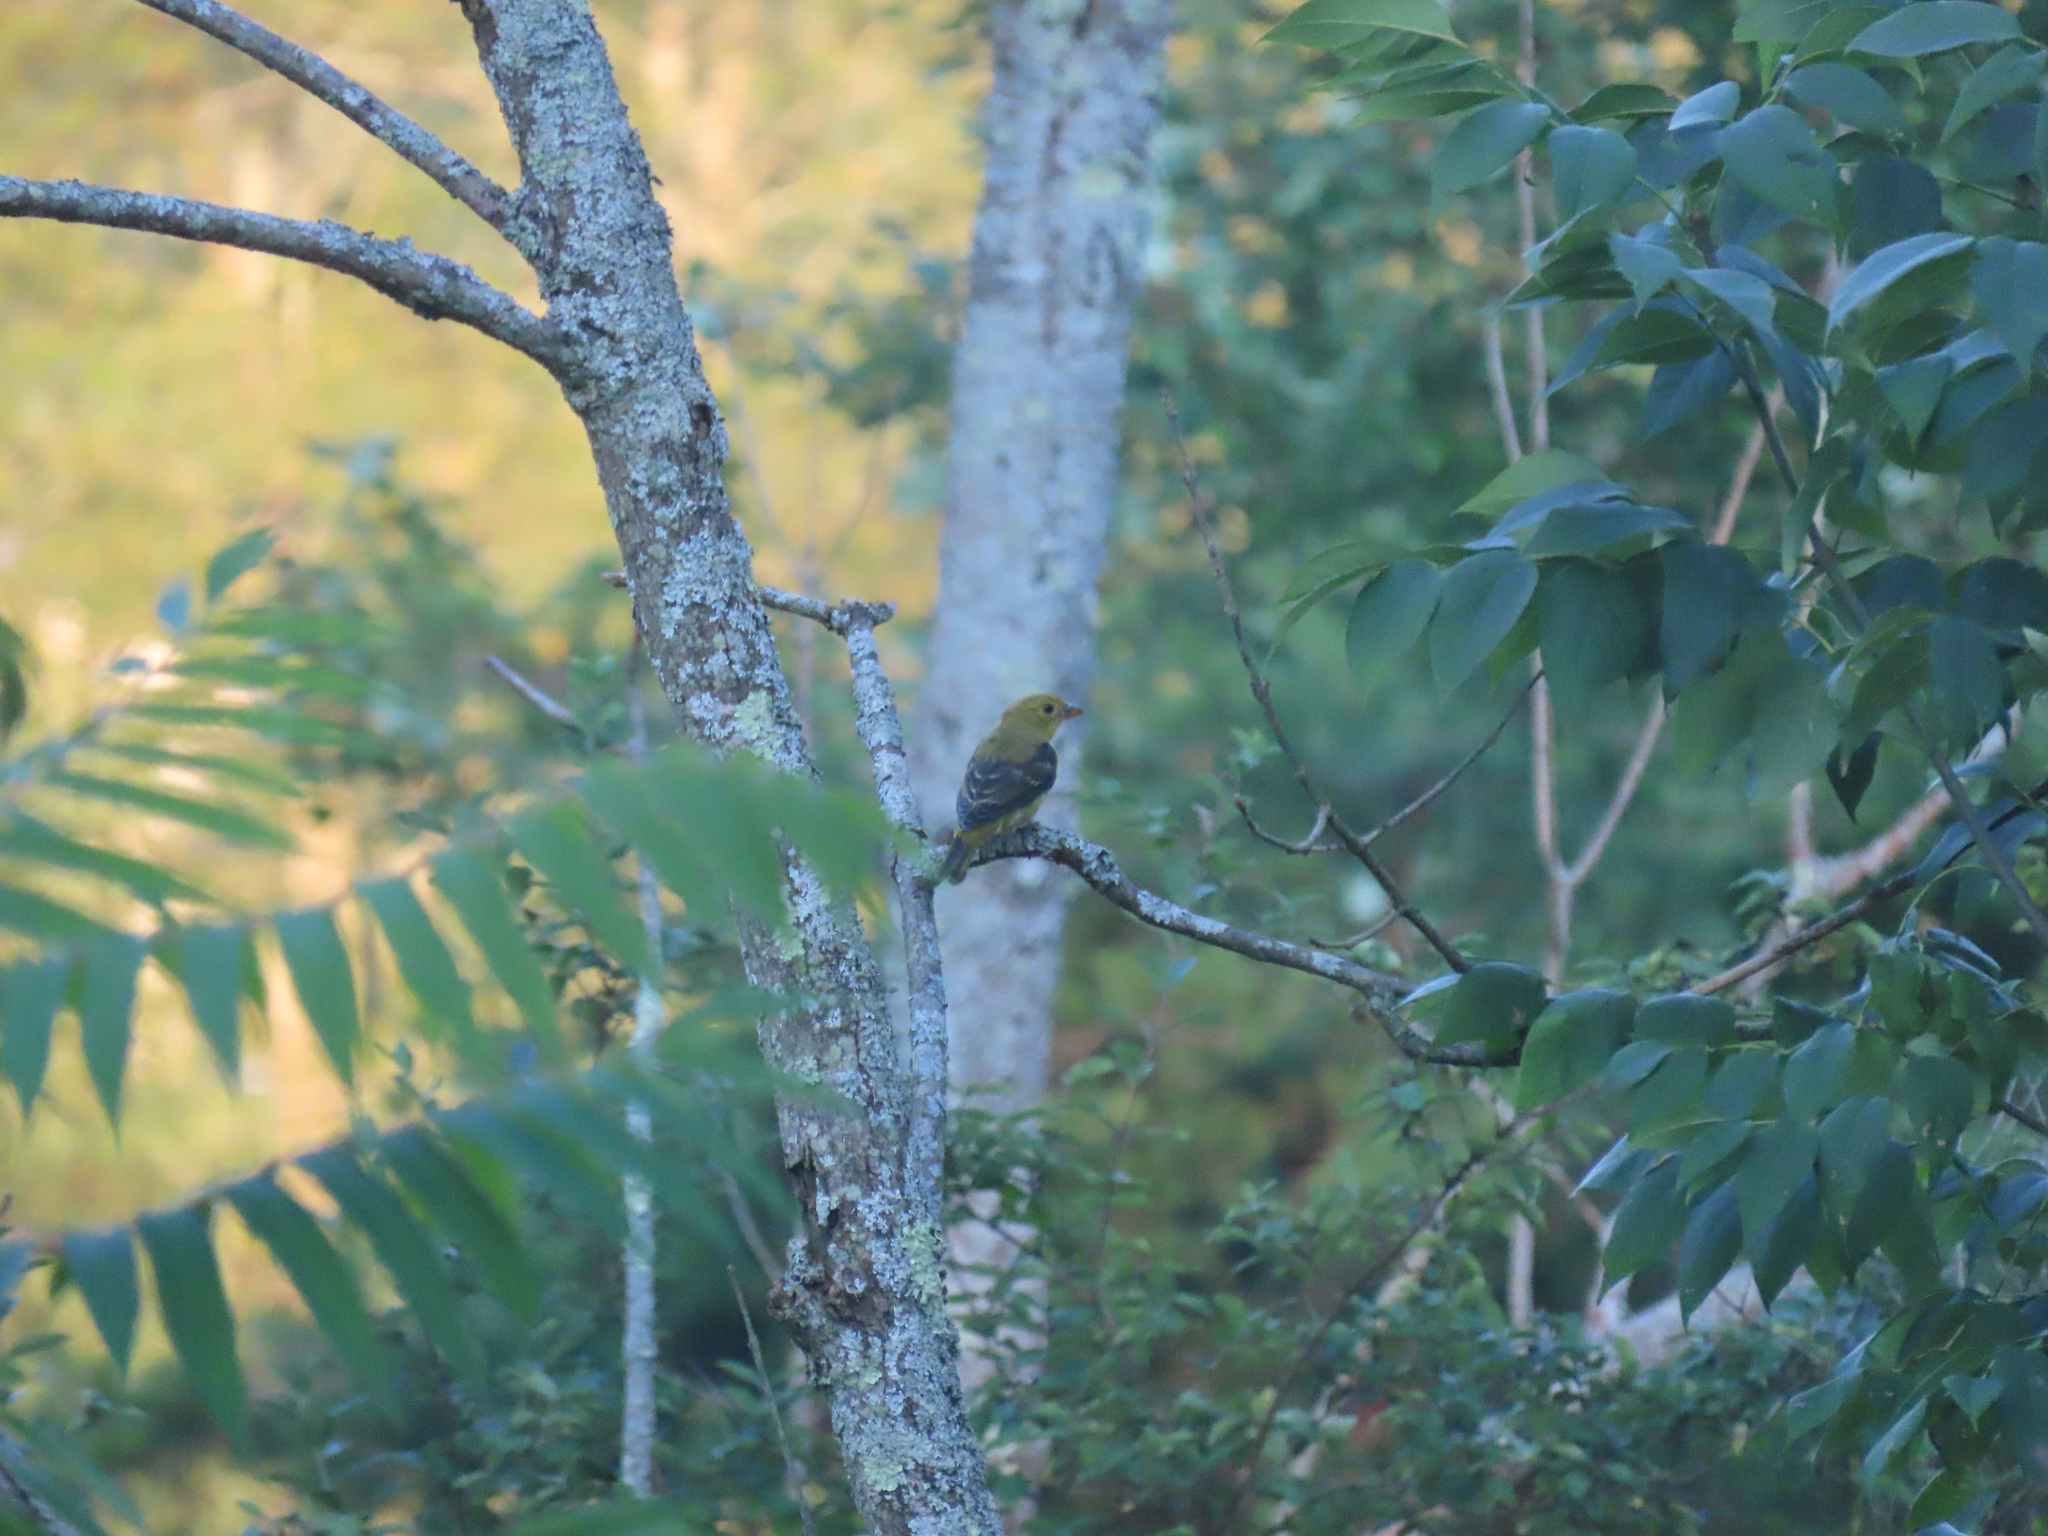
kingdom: Animalia
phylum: Chordata
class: Aves
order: Passeriformes
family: Cardinalidae
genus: Piranga
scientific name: Piranga olivacea
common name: Scarlet tanager
